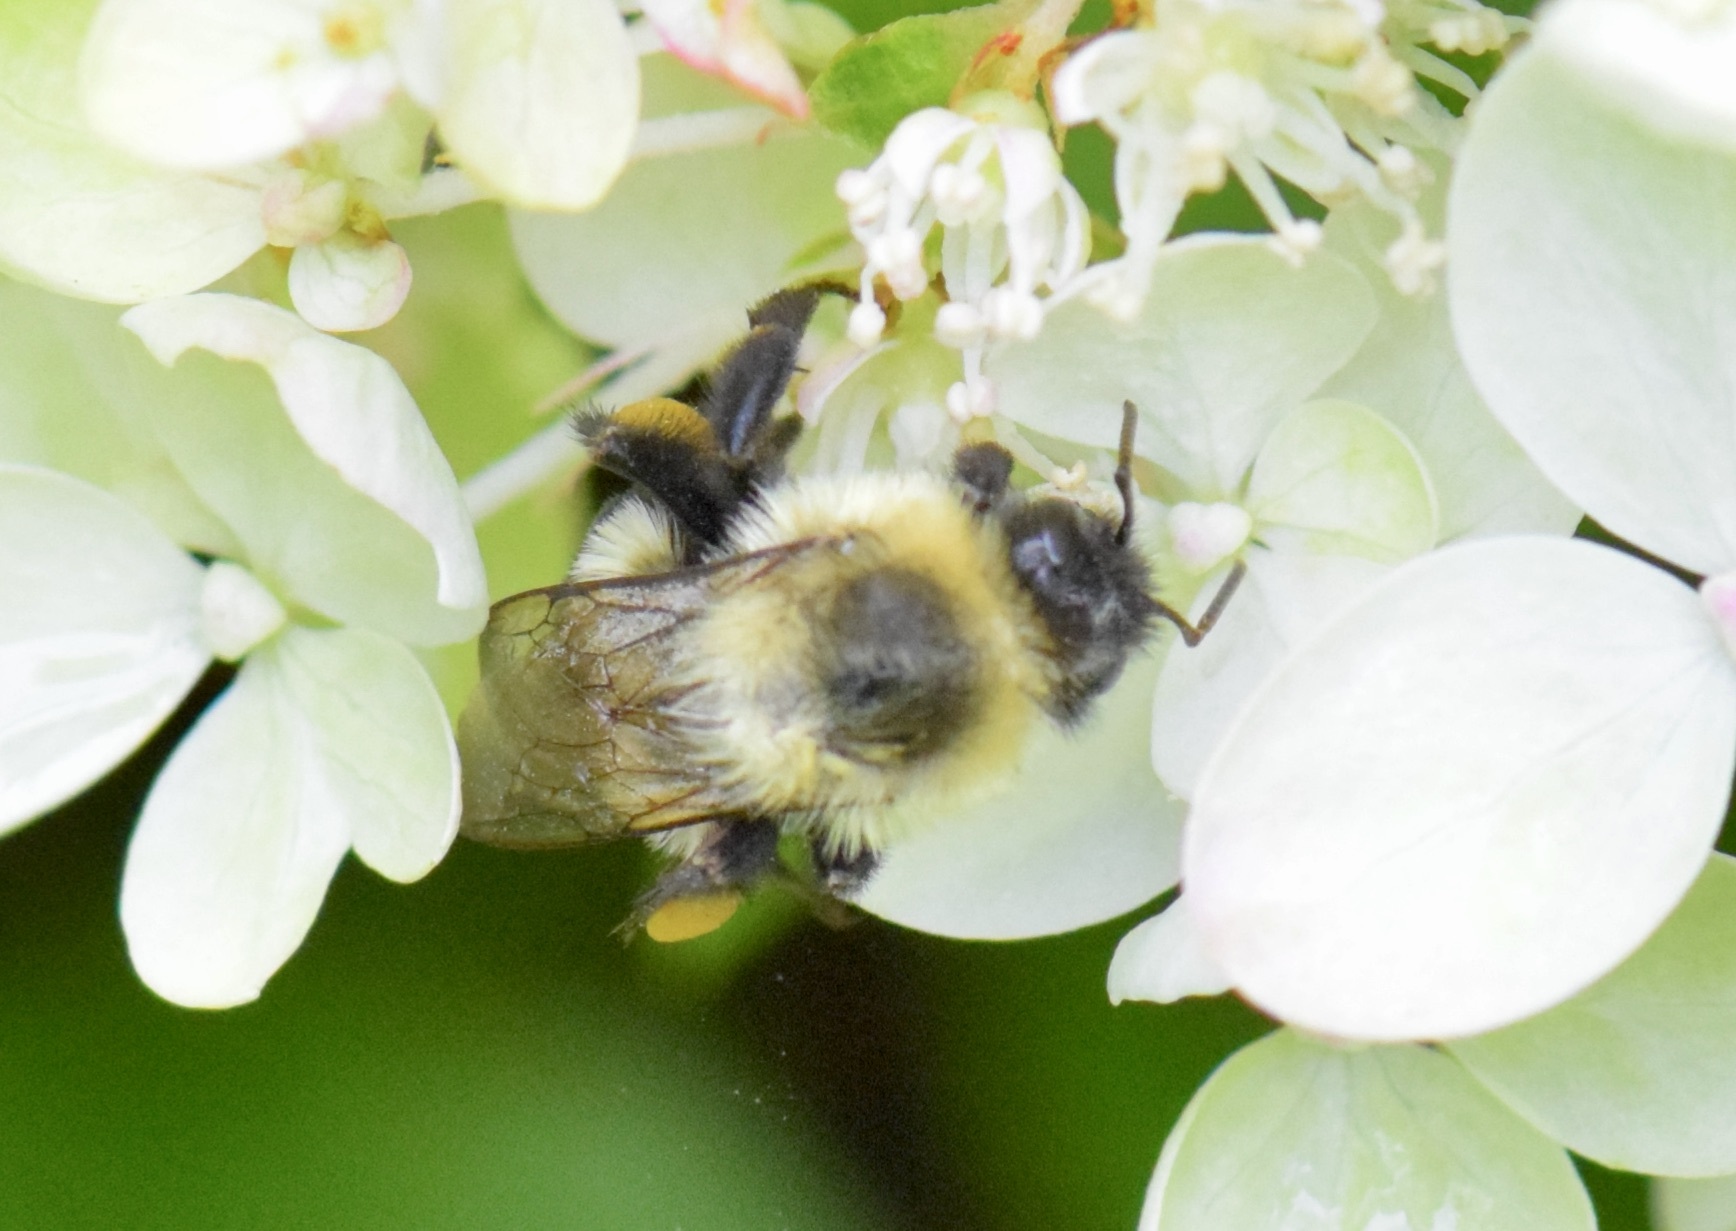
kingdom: Animalia
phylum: Arthropoda
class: Insecta
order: Hymenoptera
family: Apidae
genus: Bombus
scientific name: Bombus impatiens
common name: Common eastern bumble bee
